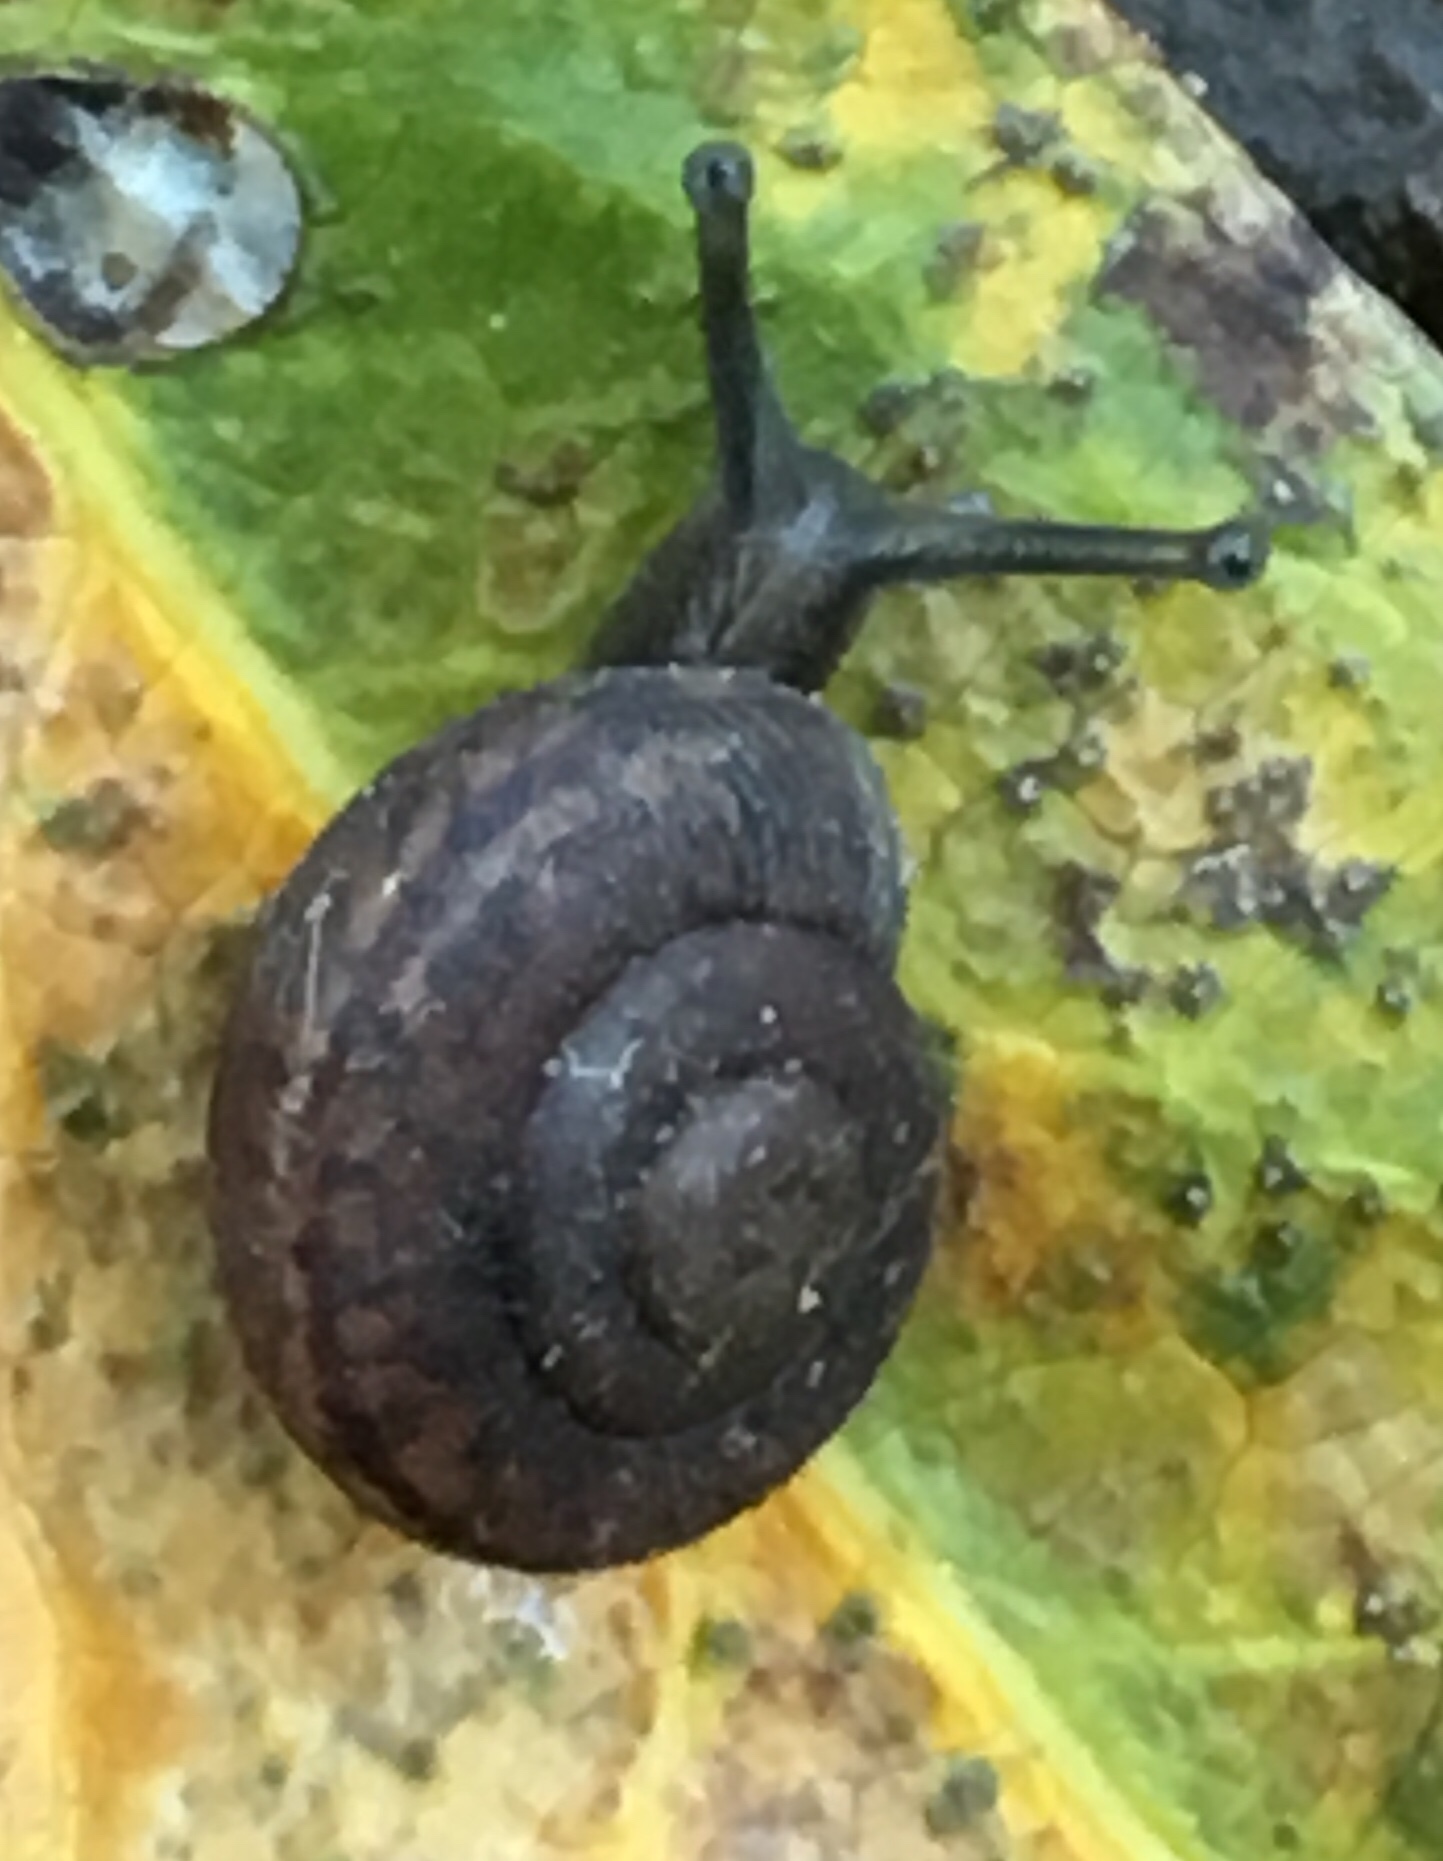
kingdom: Animalia
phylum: Mollusca
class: Gastropoda
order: Stylommatophora
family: Xanthonychidae
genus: Helminthoglypta
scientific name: Helminthoglypta sanctaecrucis
